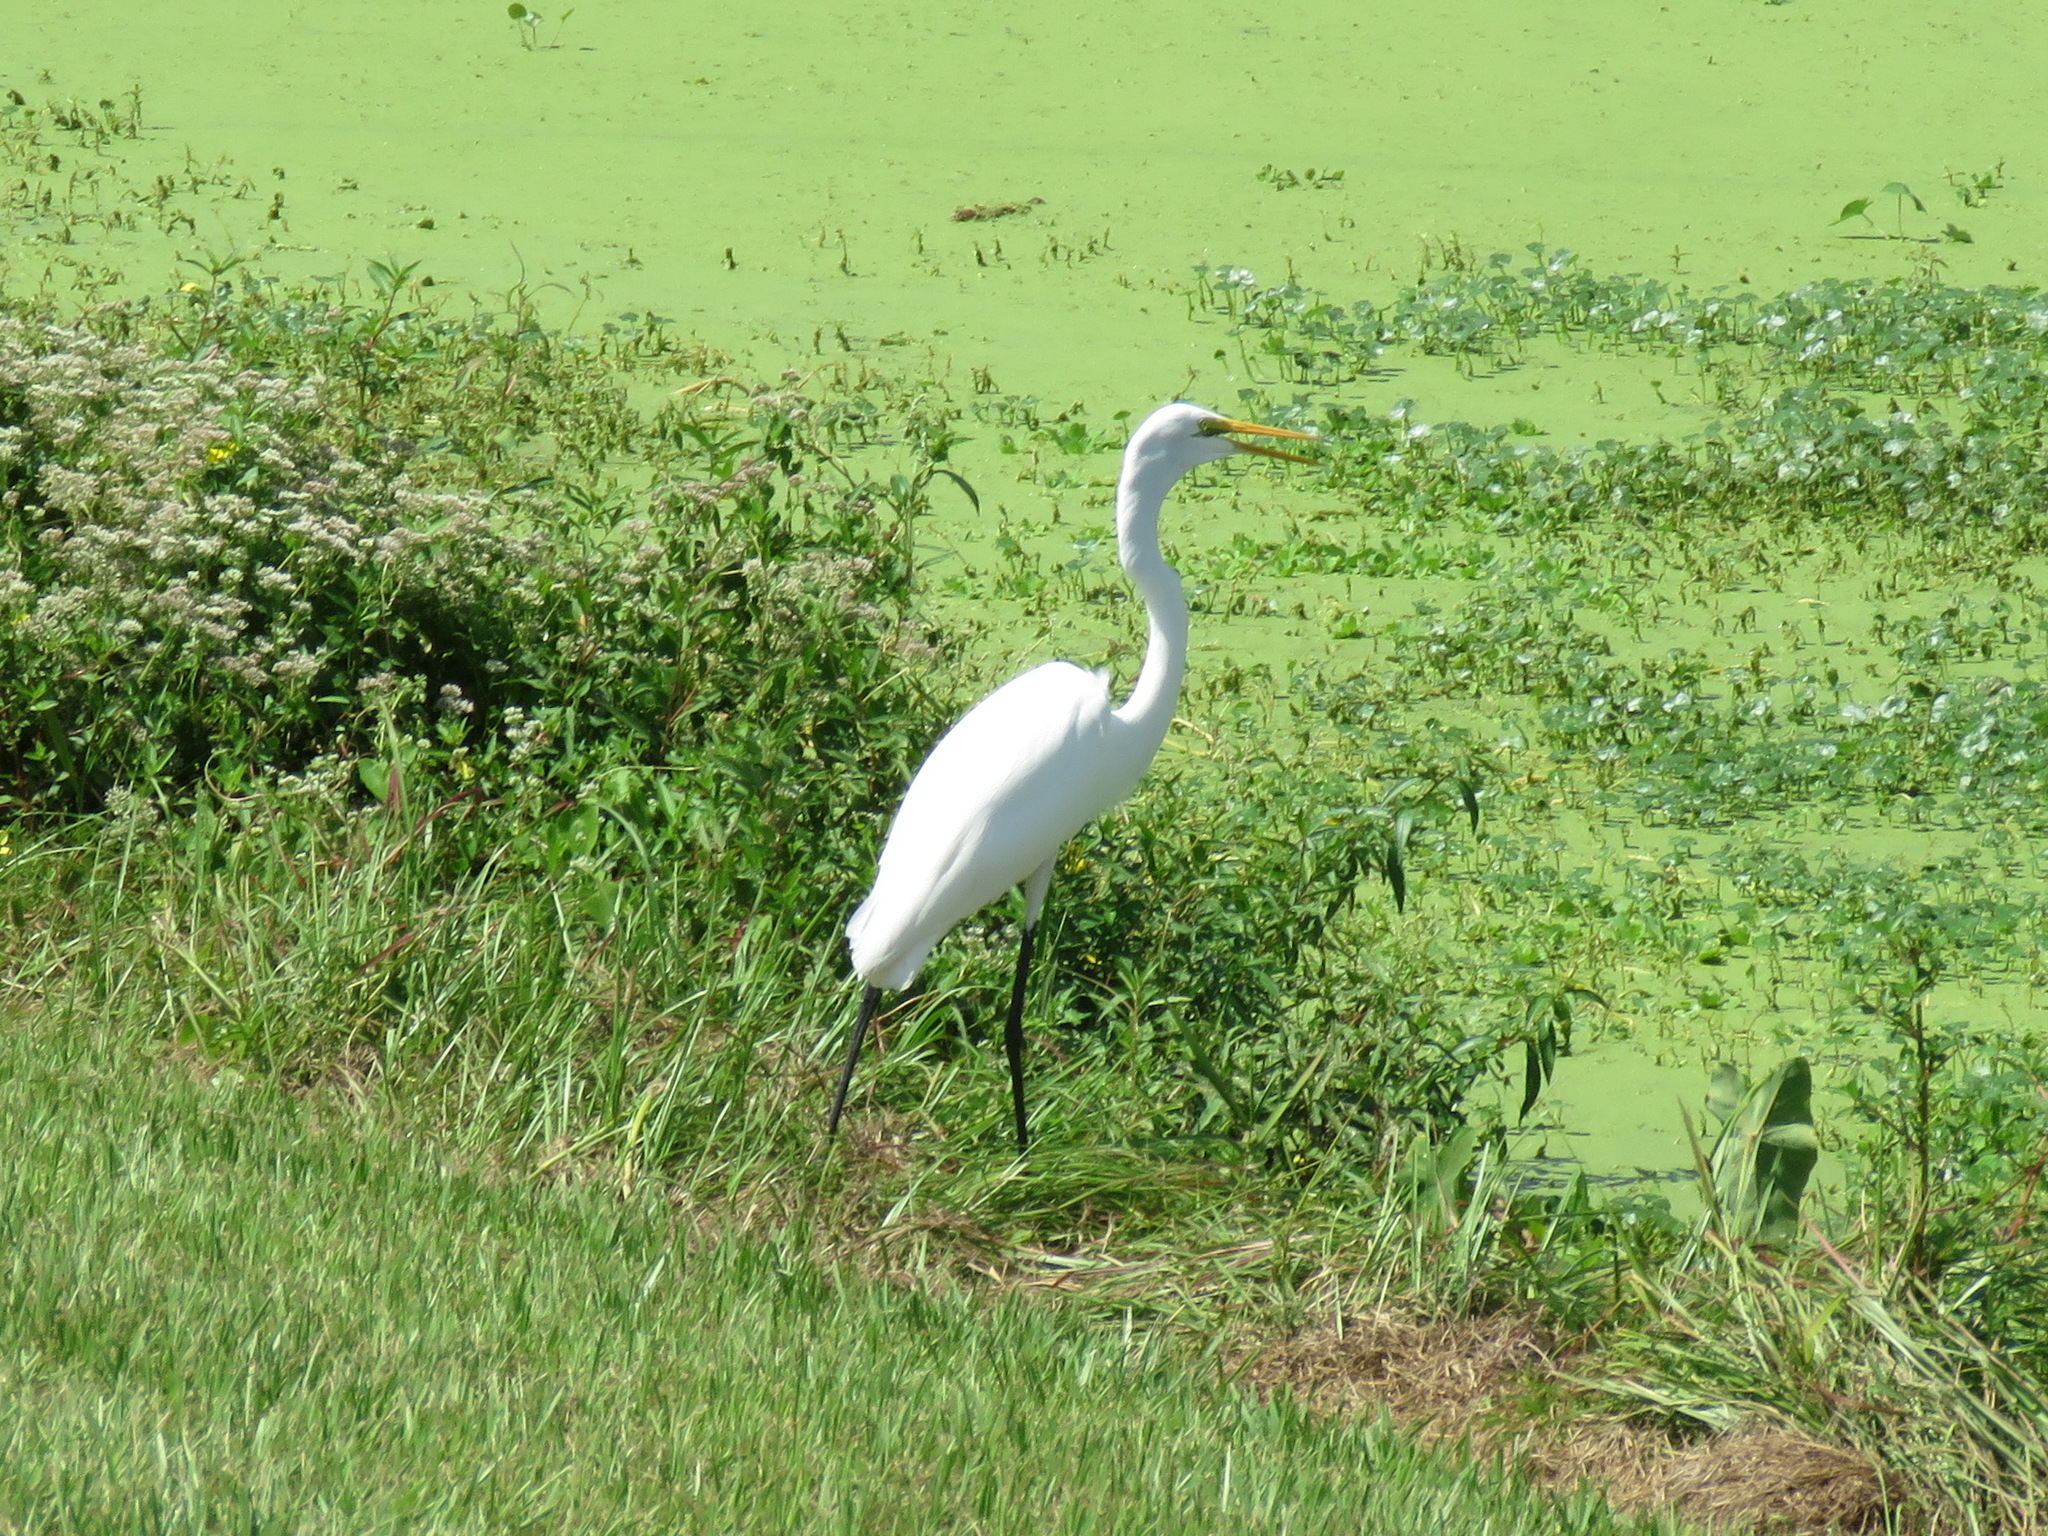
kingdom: Animalia
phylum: Chordata
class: Aves
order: Pelecaniformes
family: Ardeidae
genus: Ardea
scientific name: Ardea alba
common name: Great egret
